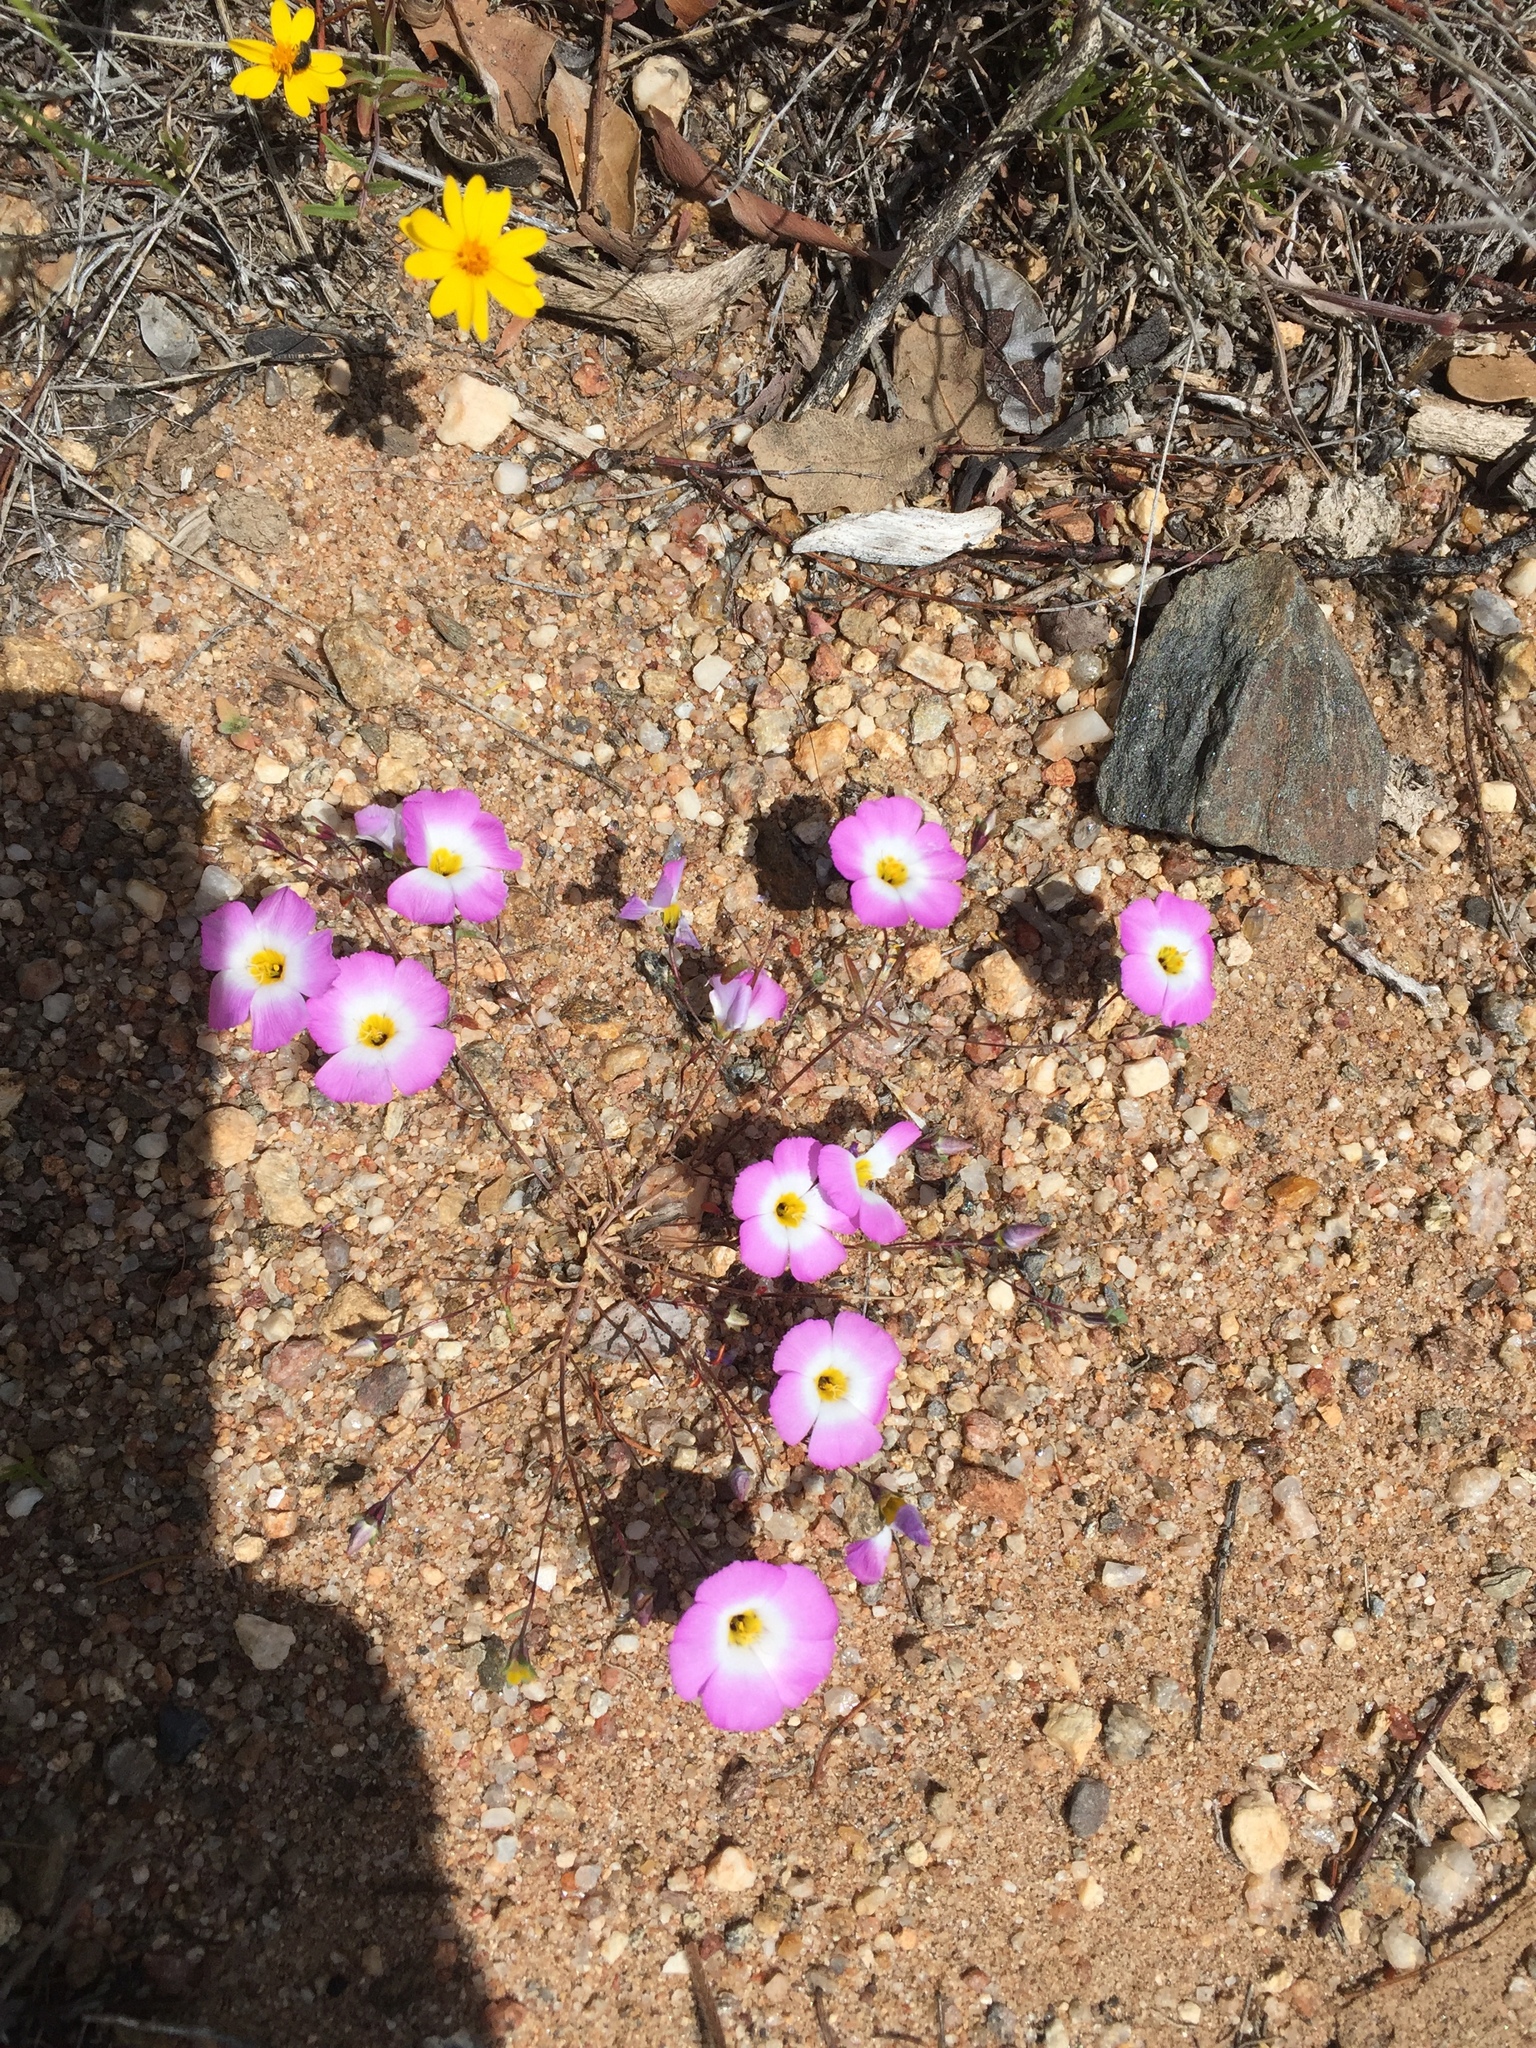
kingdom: Plantae
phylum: Tracheophyta
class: Magnoliopsida
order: Ericales
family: Polemoniaceae
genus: Linanthus
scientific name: Linanthus dianthiflorus
